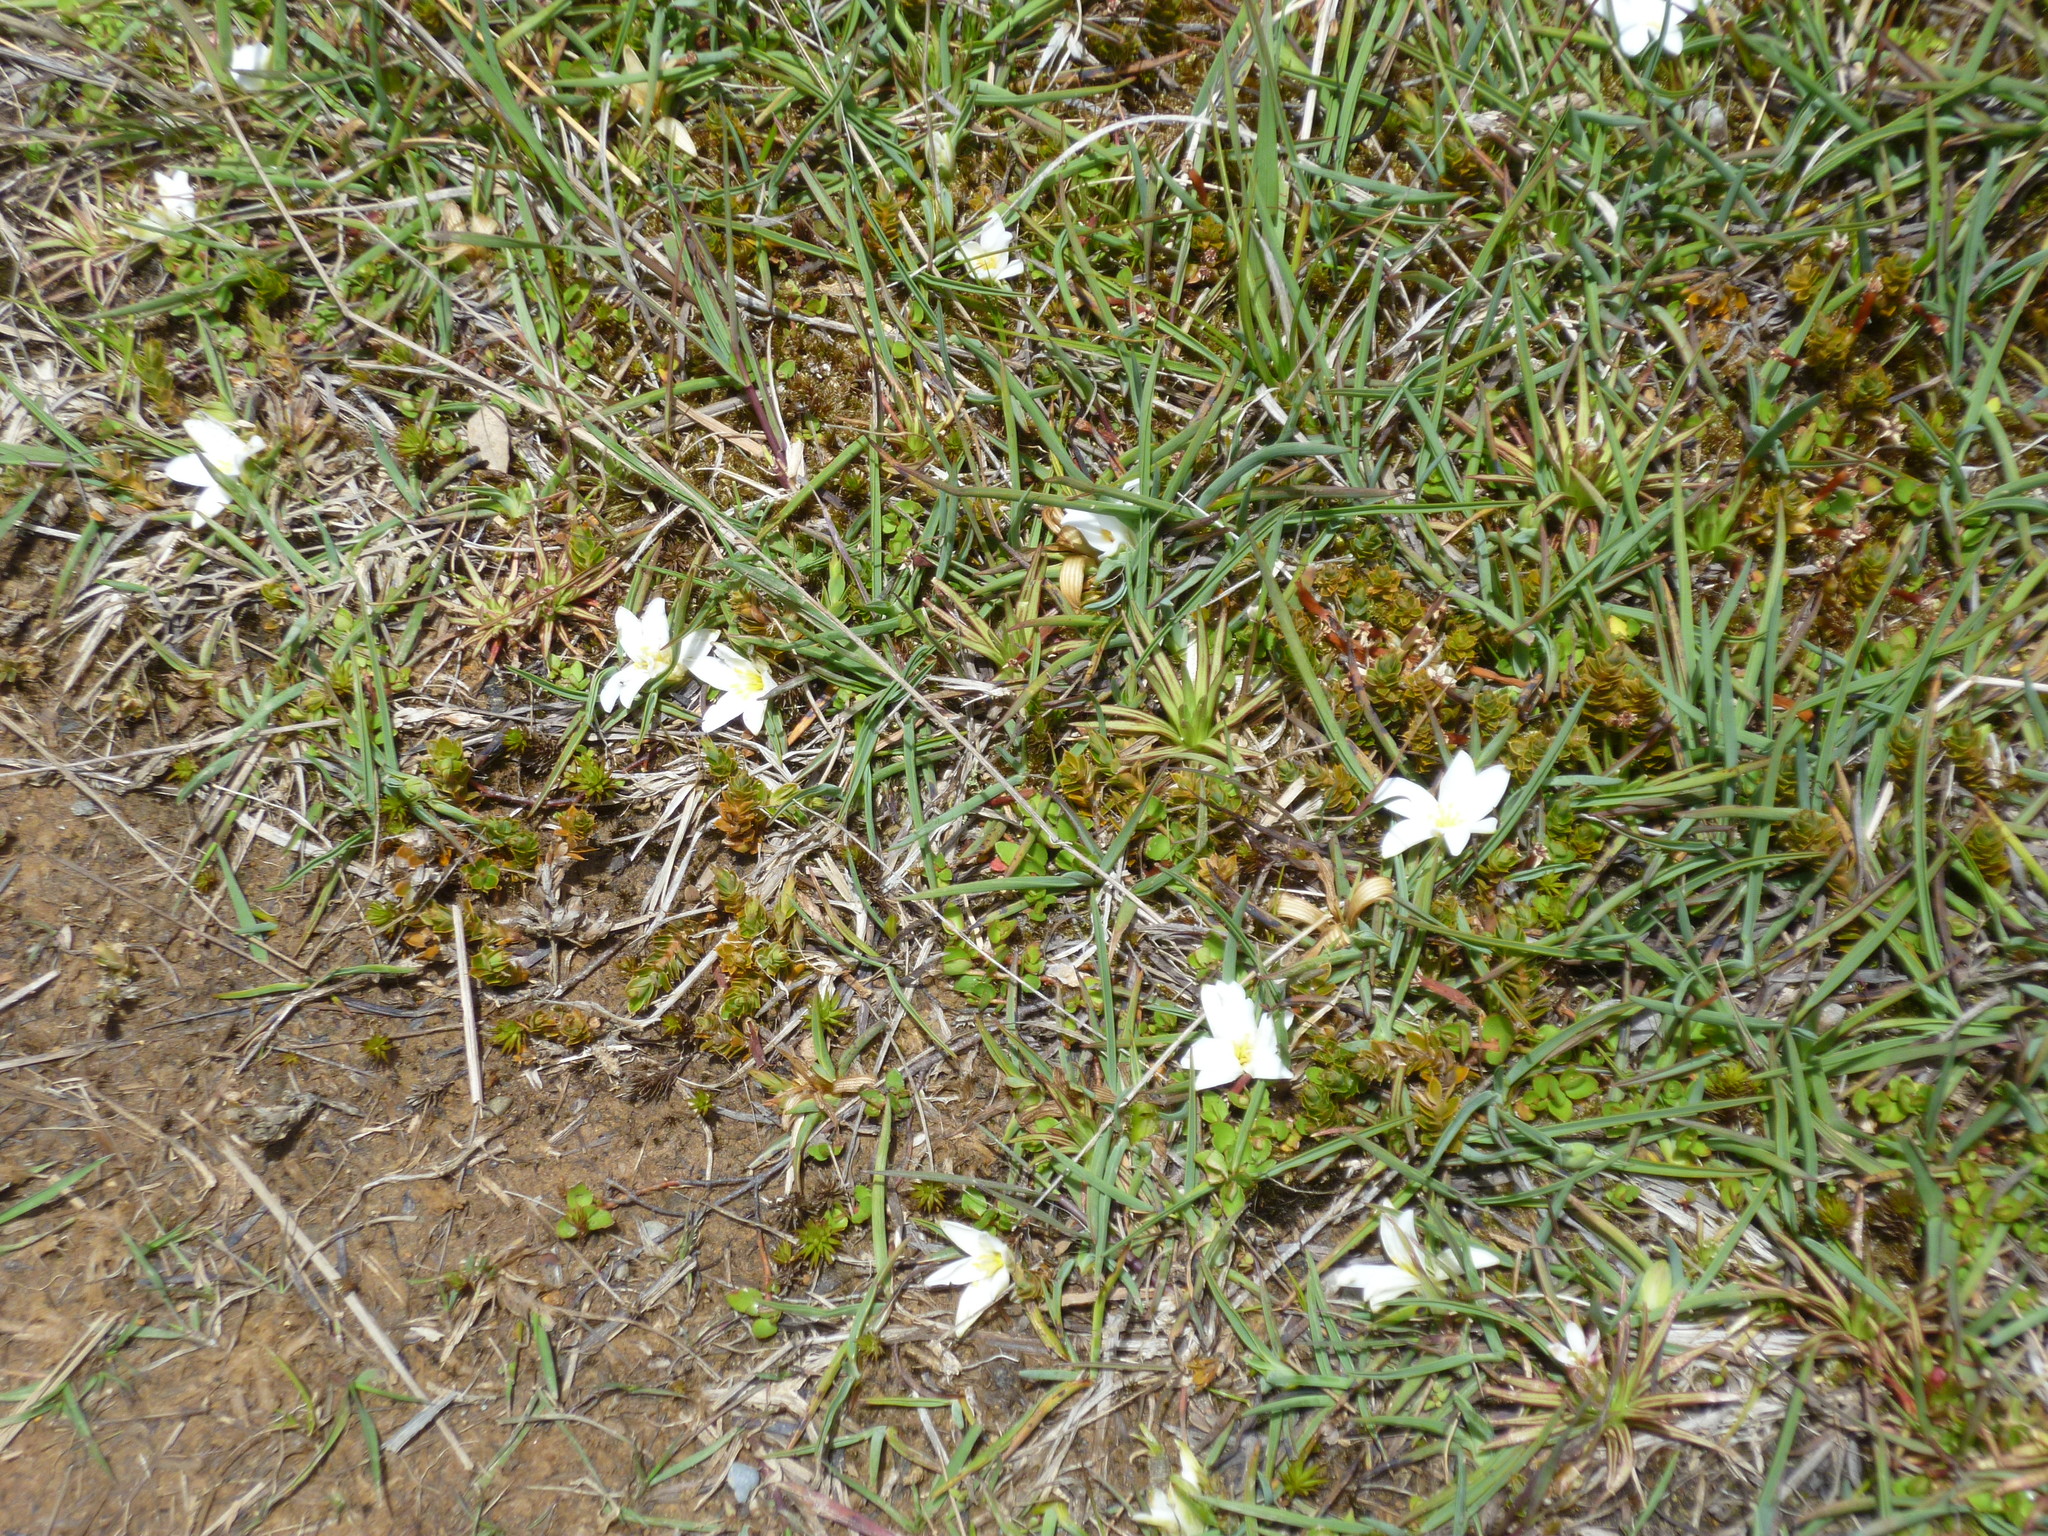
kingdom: Plantae
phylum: Tracheophyta
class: Liliopsida
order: Asparagales
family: Asphodelaceae
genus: Herpolirion
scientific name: Herpolirion novae-zelandiae
